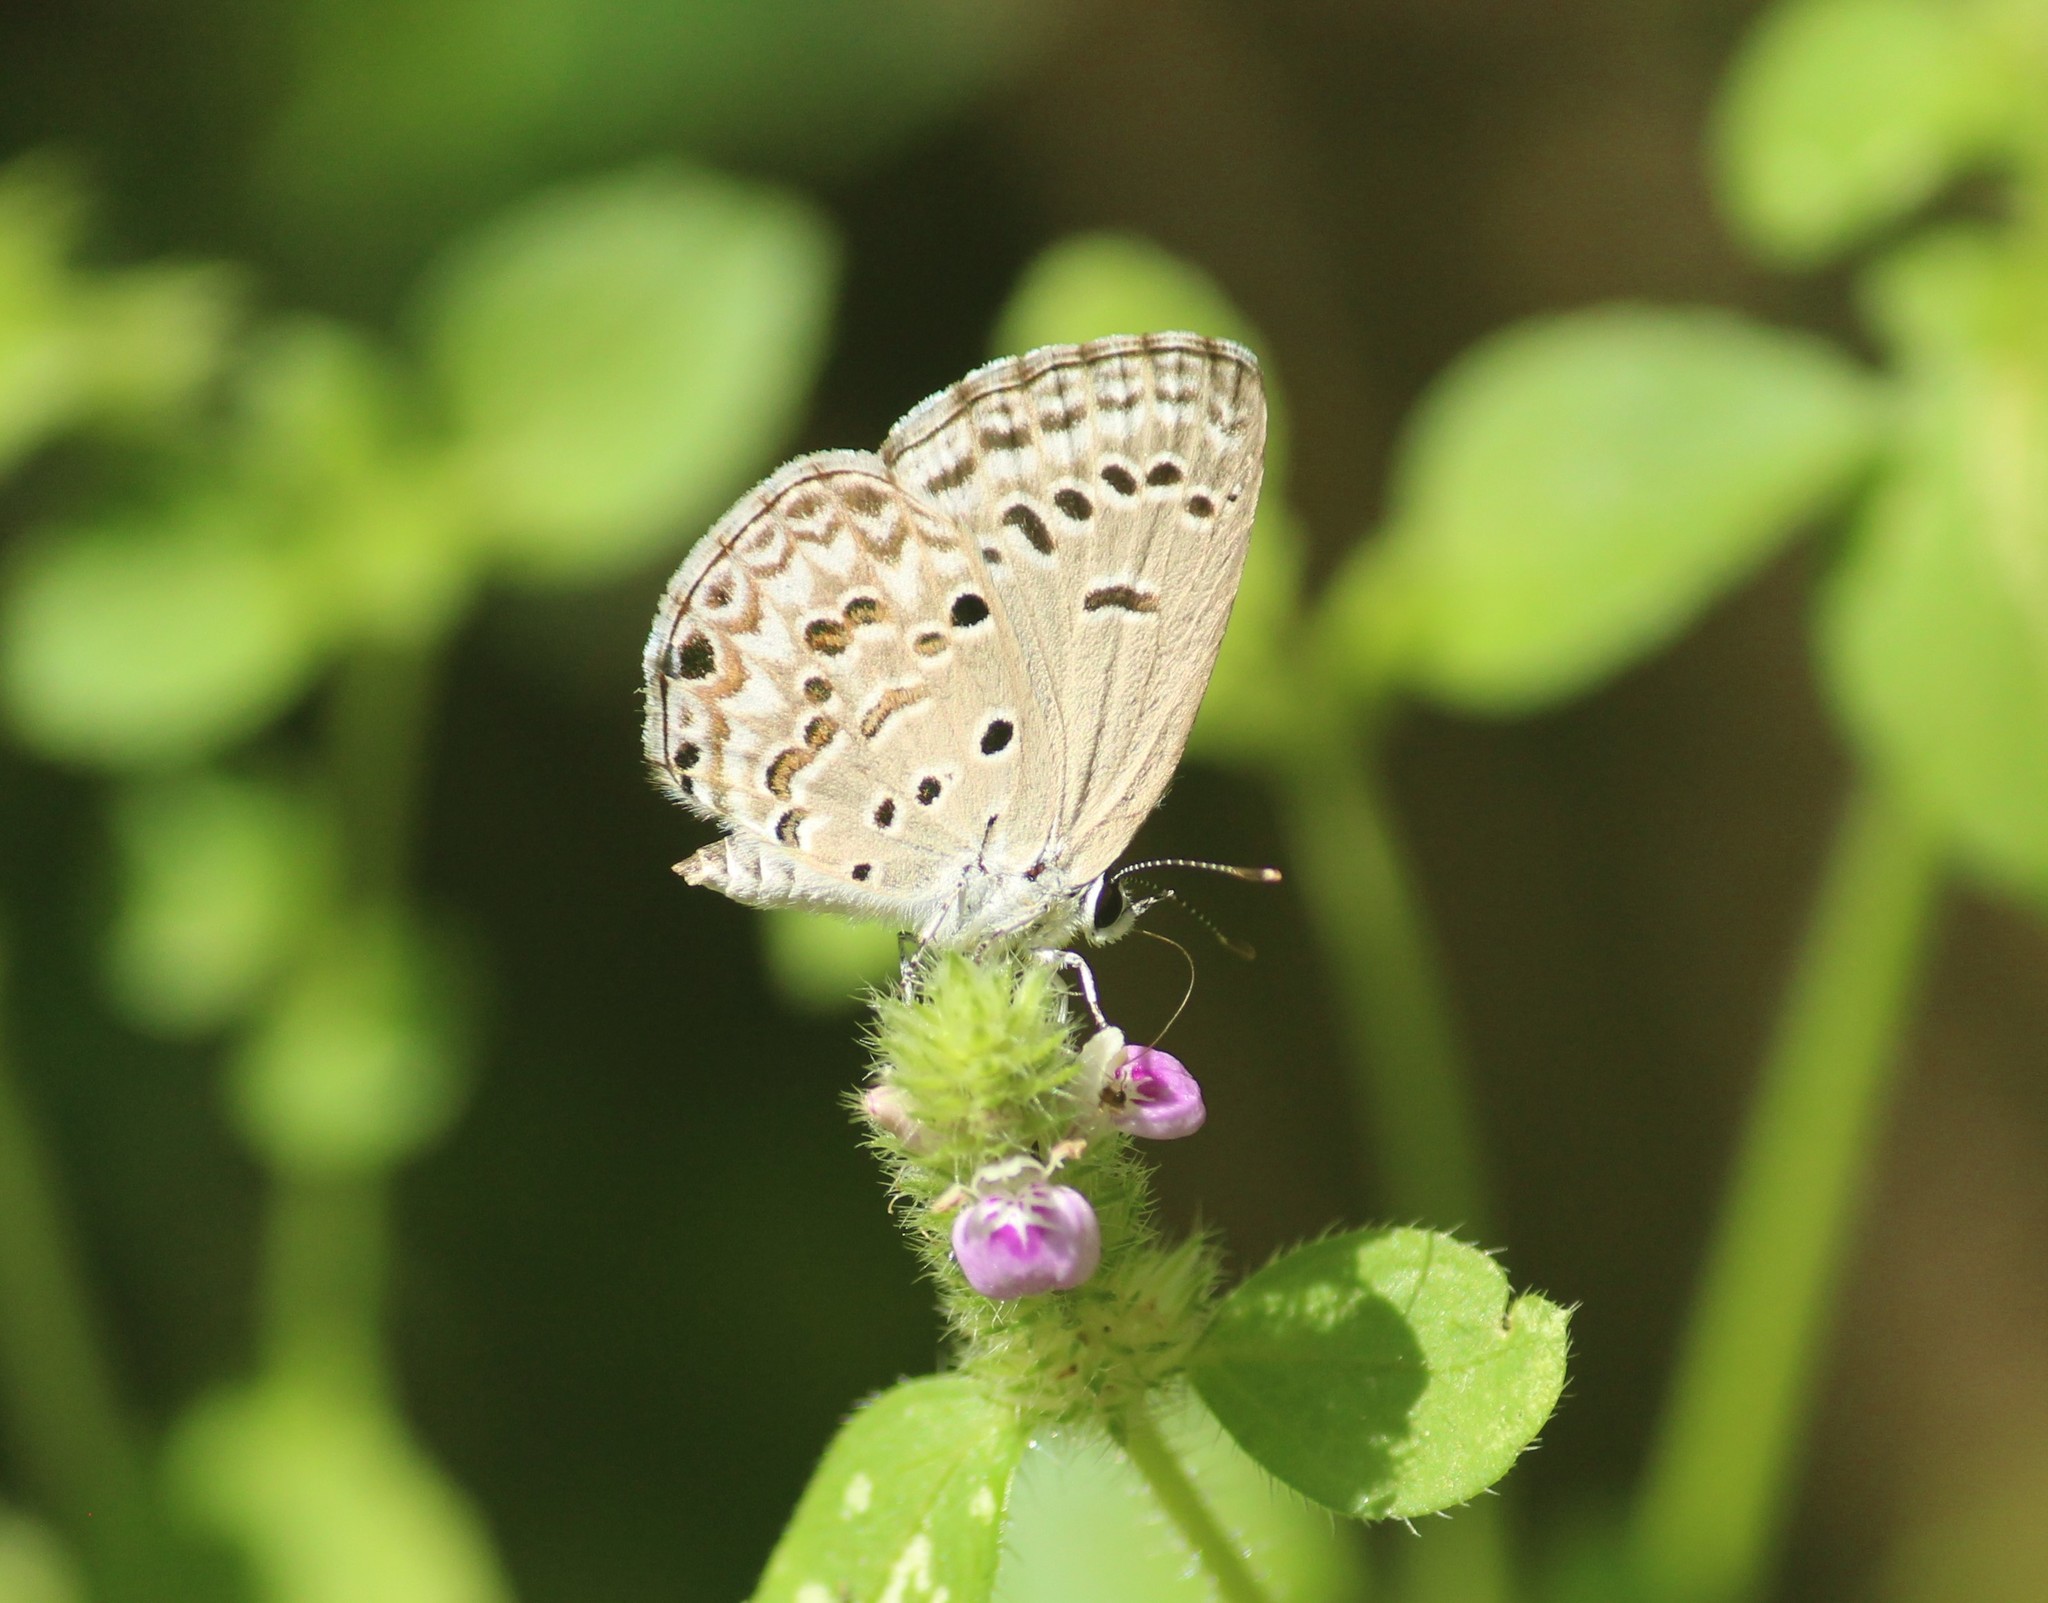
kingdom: Animalia
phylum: Arthropoda
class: Insecta
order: Lepidoptera
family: Lycaenidae
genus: Chilades
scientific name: Chilades laius
